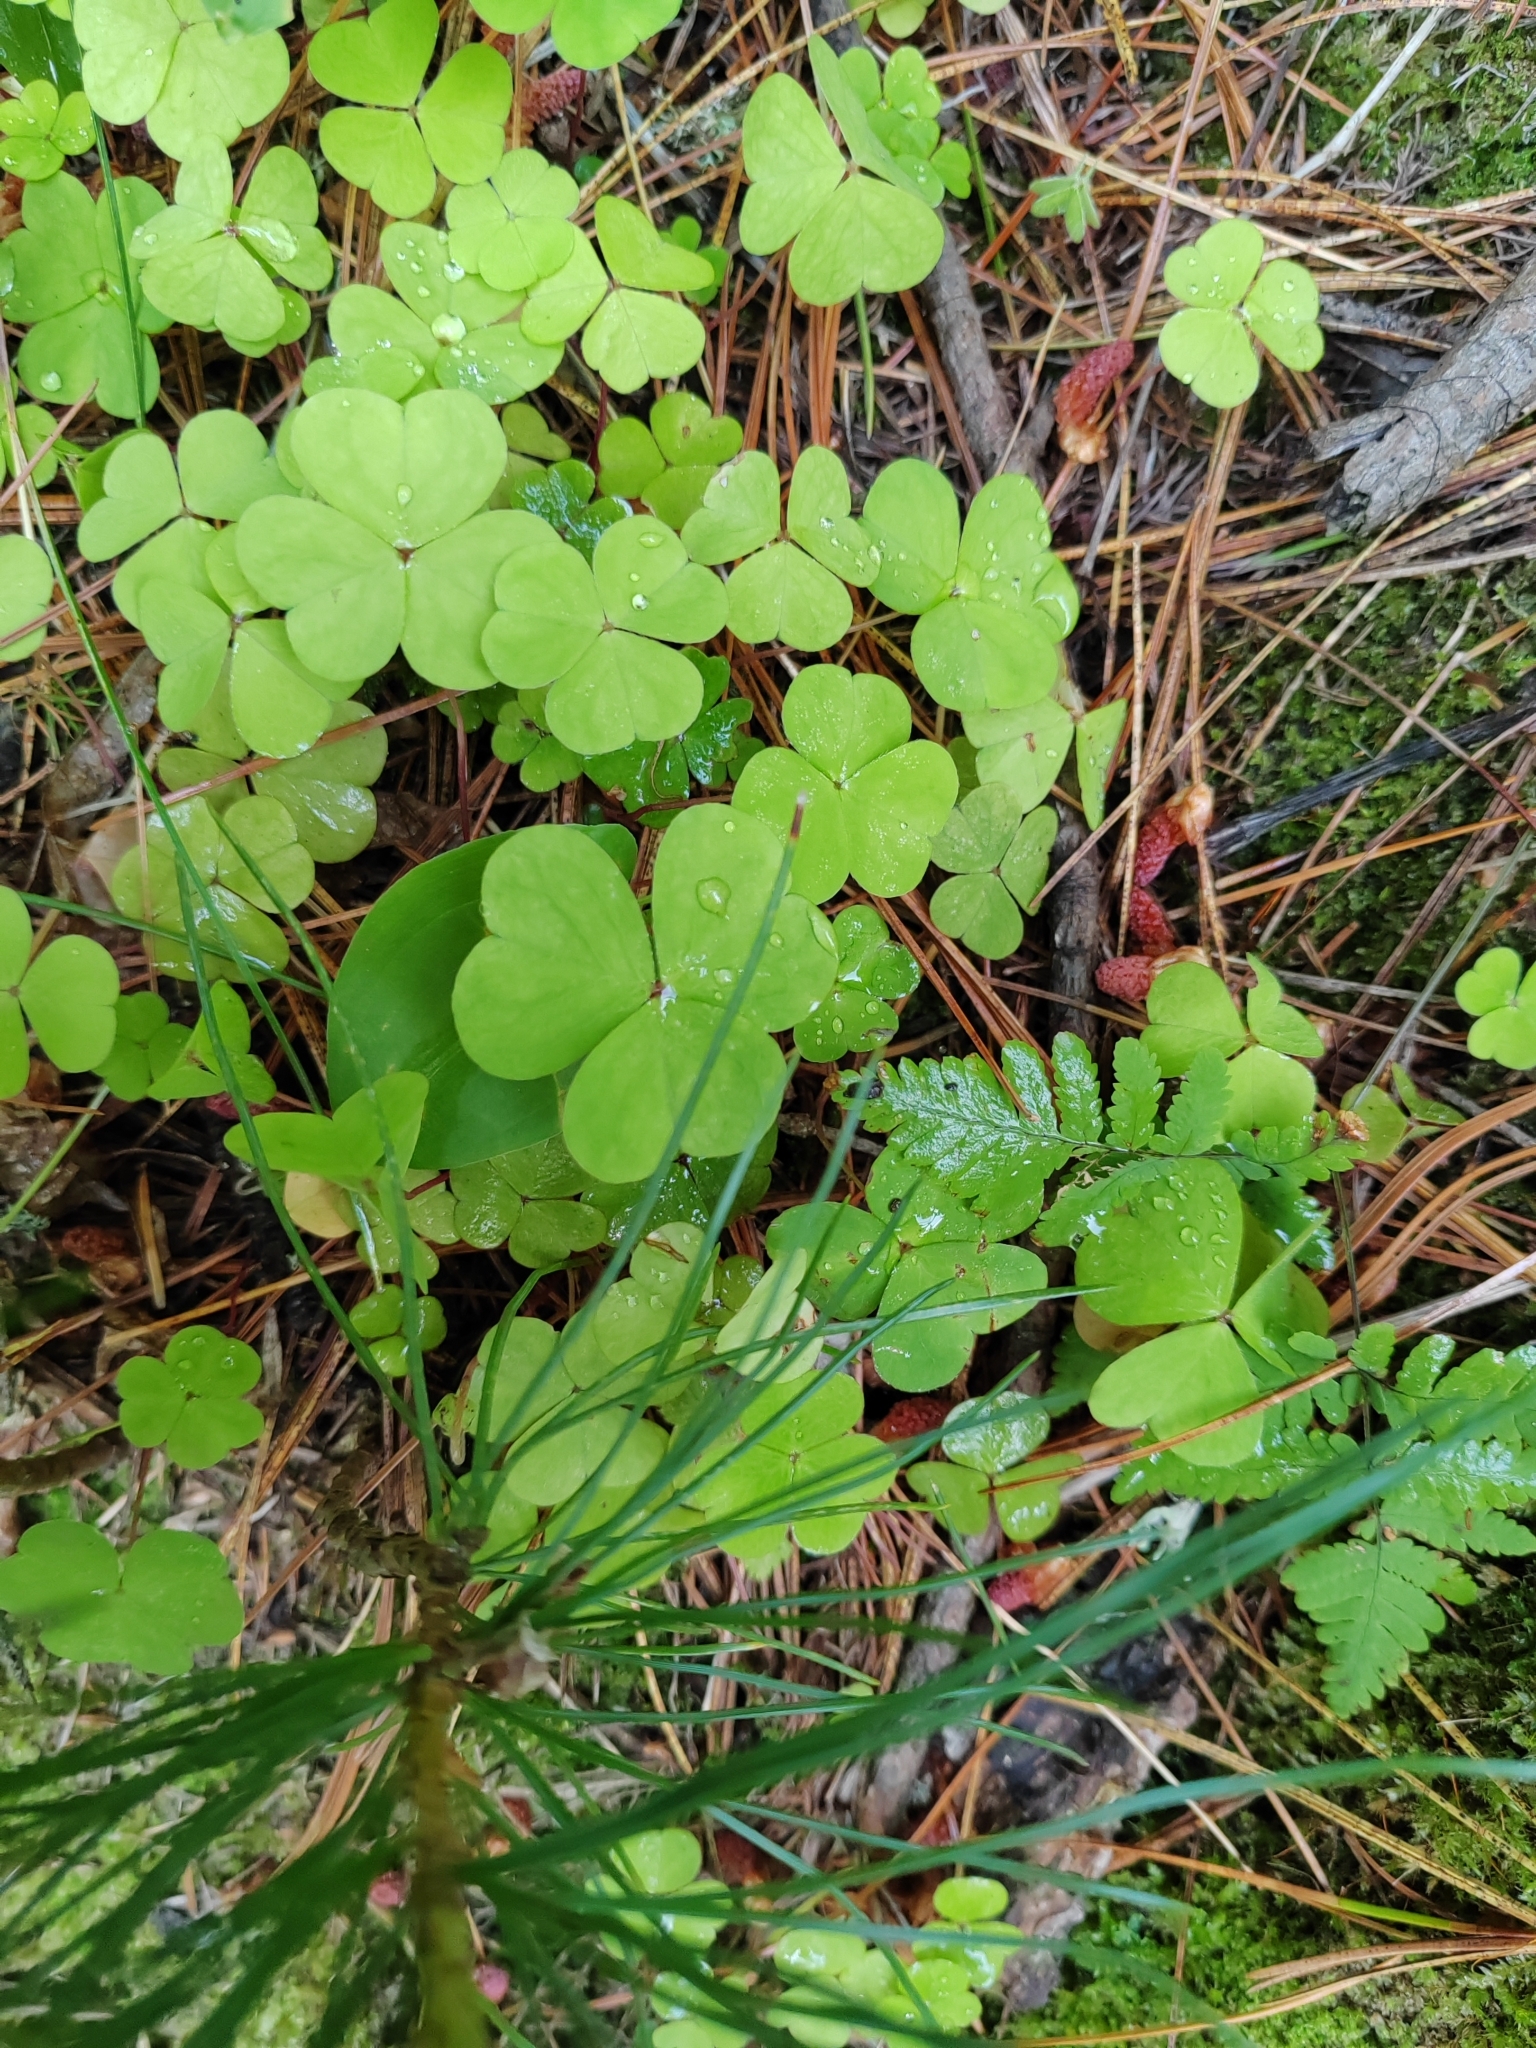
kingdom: Plantae
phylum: Tracheophyta
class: Magnoliopsida
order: Oxalidales
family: Oxalidaceae
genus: Oxalis
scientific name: Oxalis acetosella
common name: Wood-sorrel
